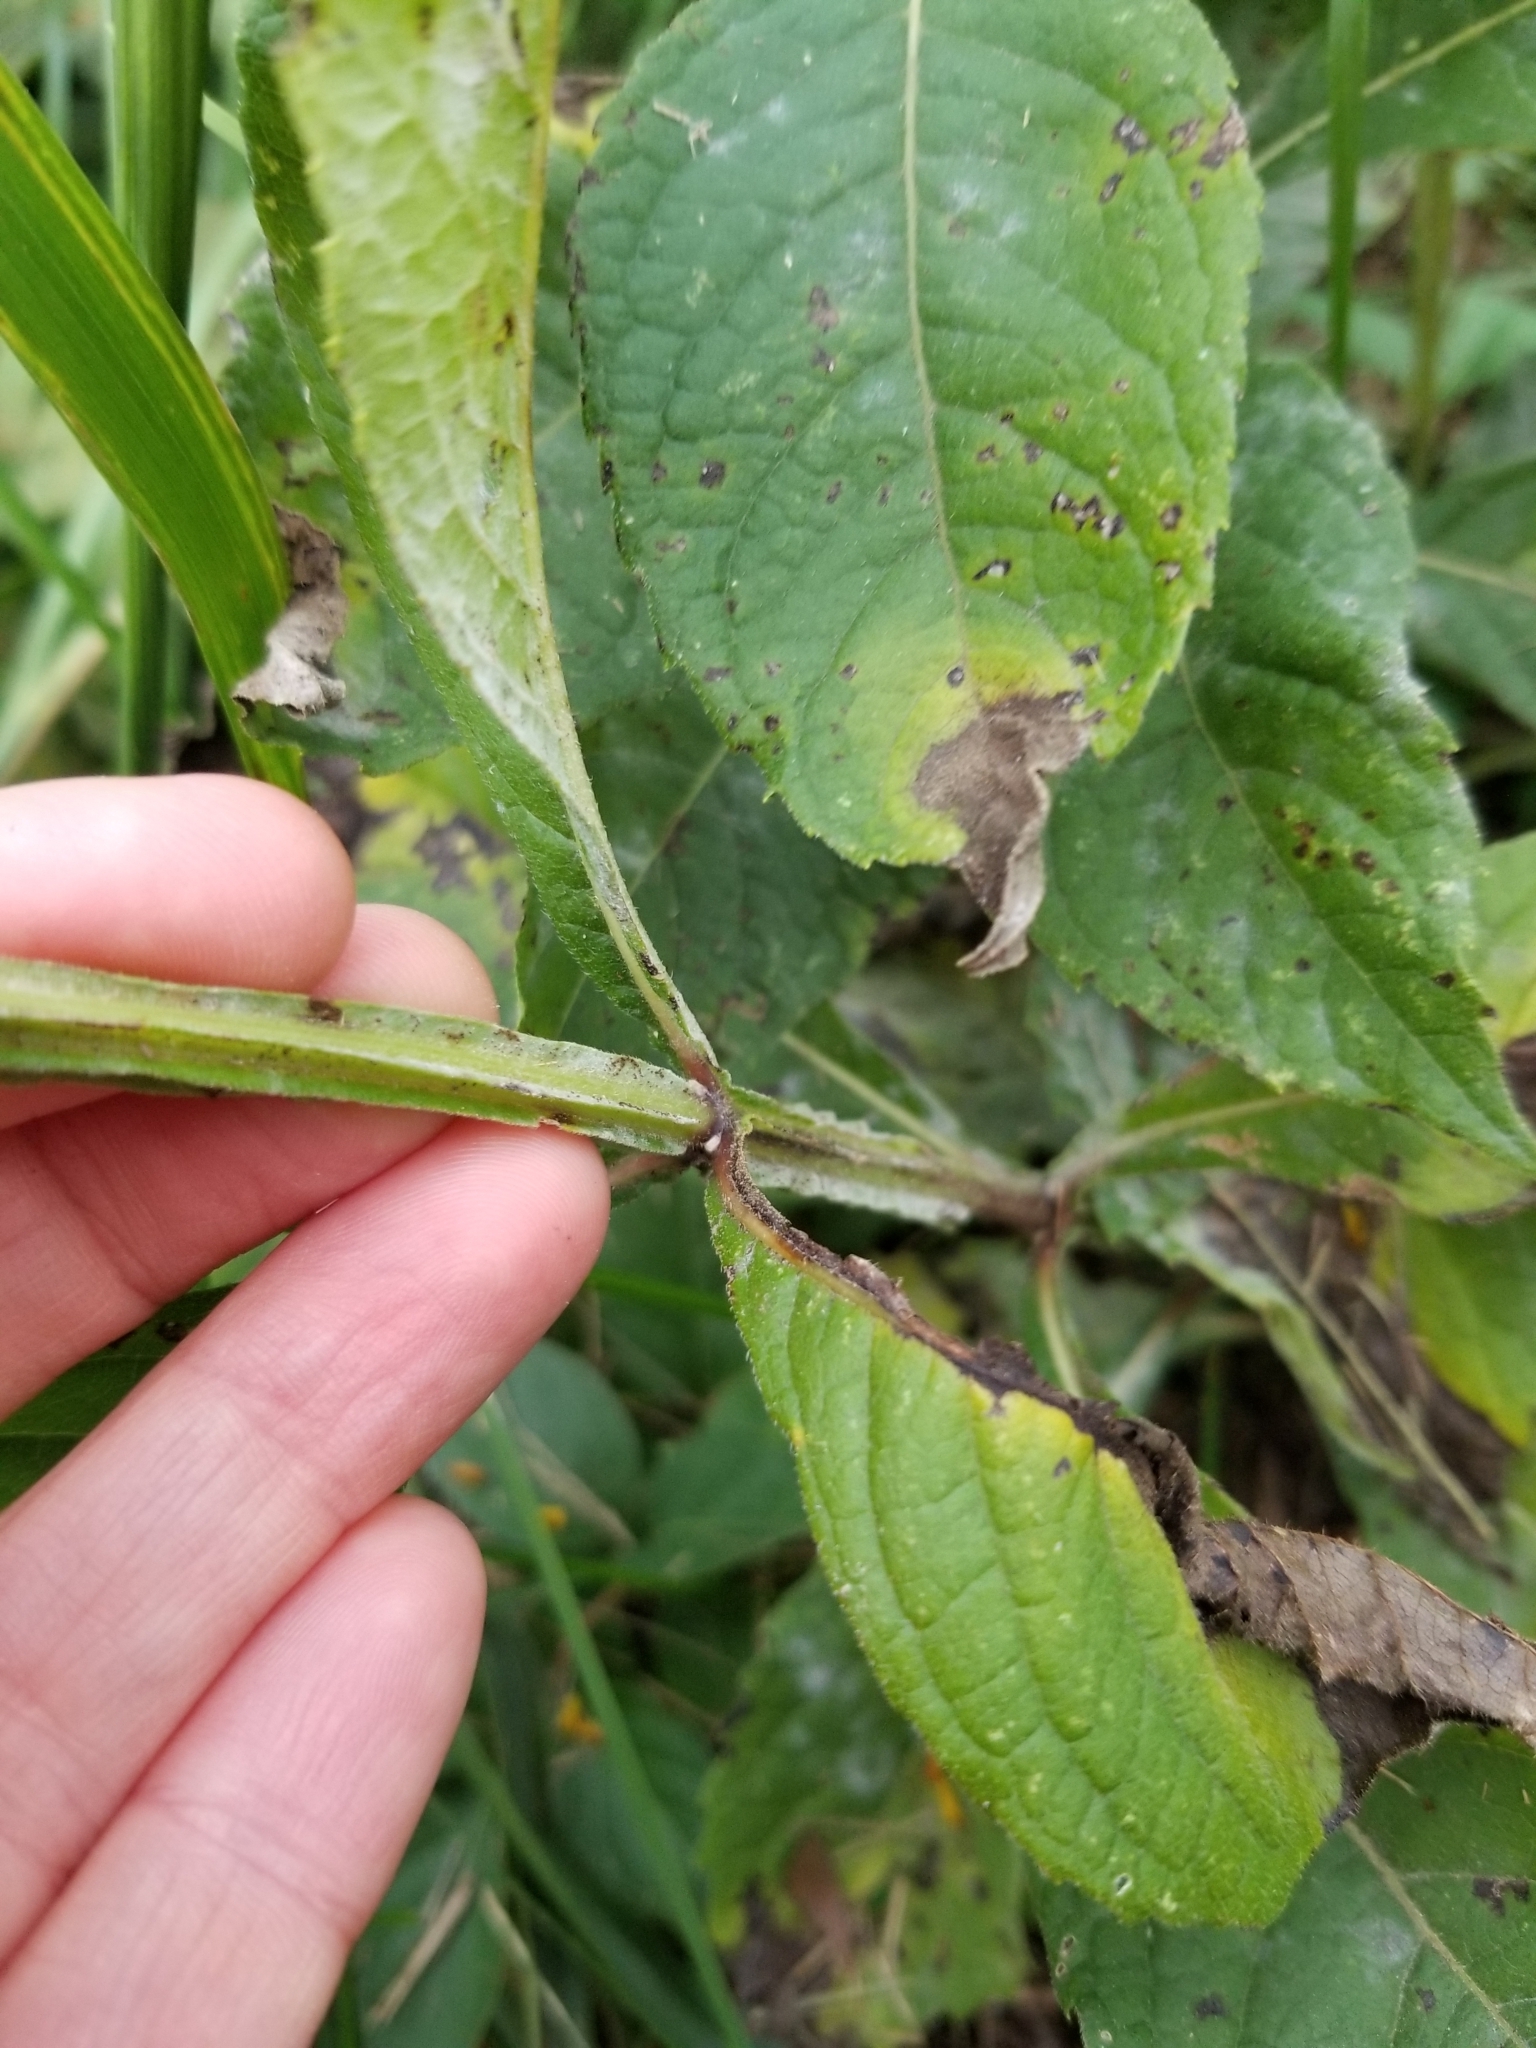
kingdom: Plantae
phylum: Tracheophyta
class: Magnoliopsida
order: Asterales
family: Asteraceae
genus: Verbesina
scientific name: Verbesina alternifolia
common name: Wingstem
